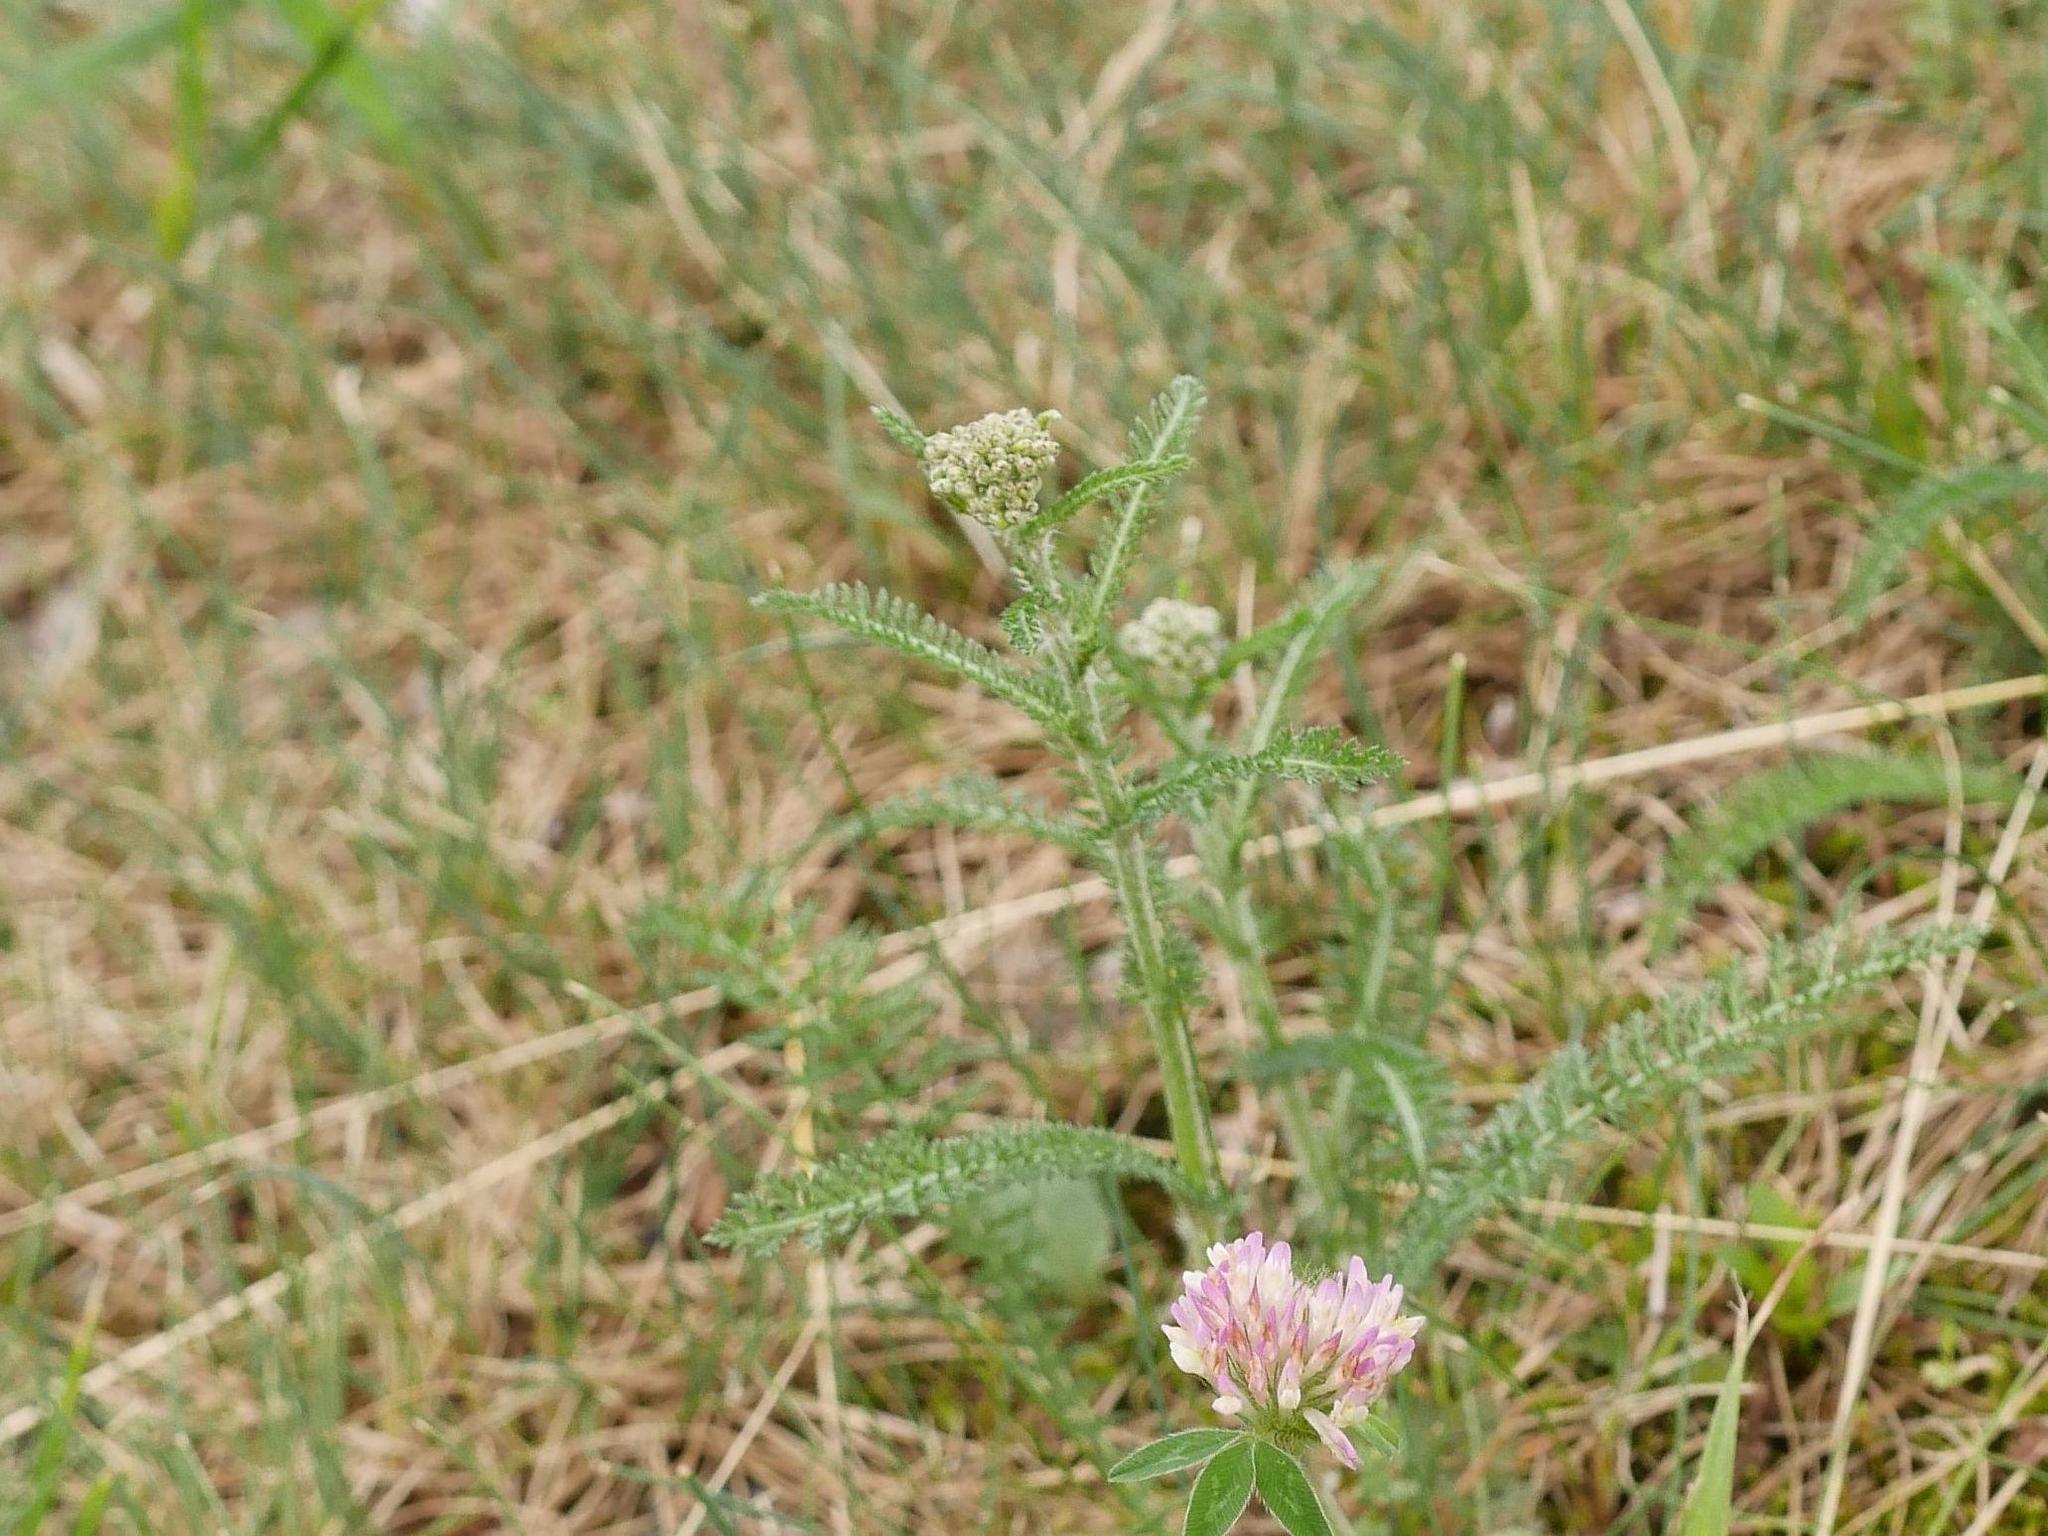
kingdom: Plantae
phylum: Tracheophyta
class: Magnoliopsida
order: Asterales
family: Asteraceae
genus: Achillea
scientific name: Achillea millefolium
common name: Yarrow
